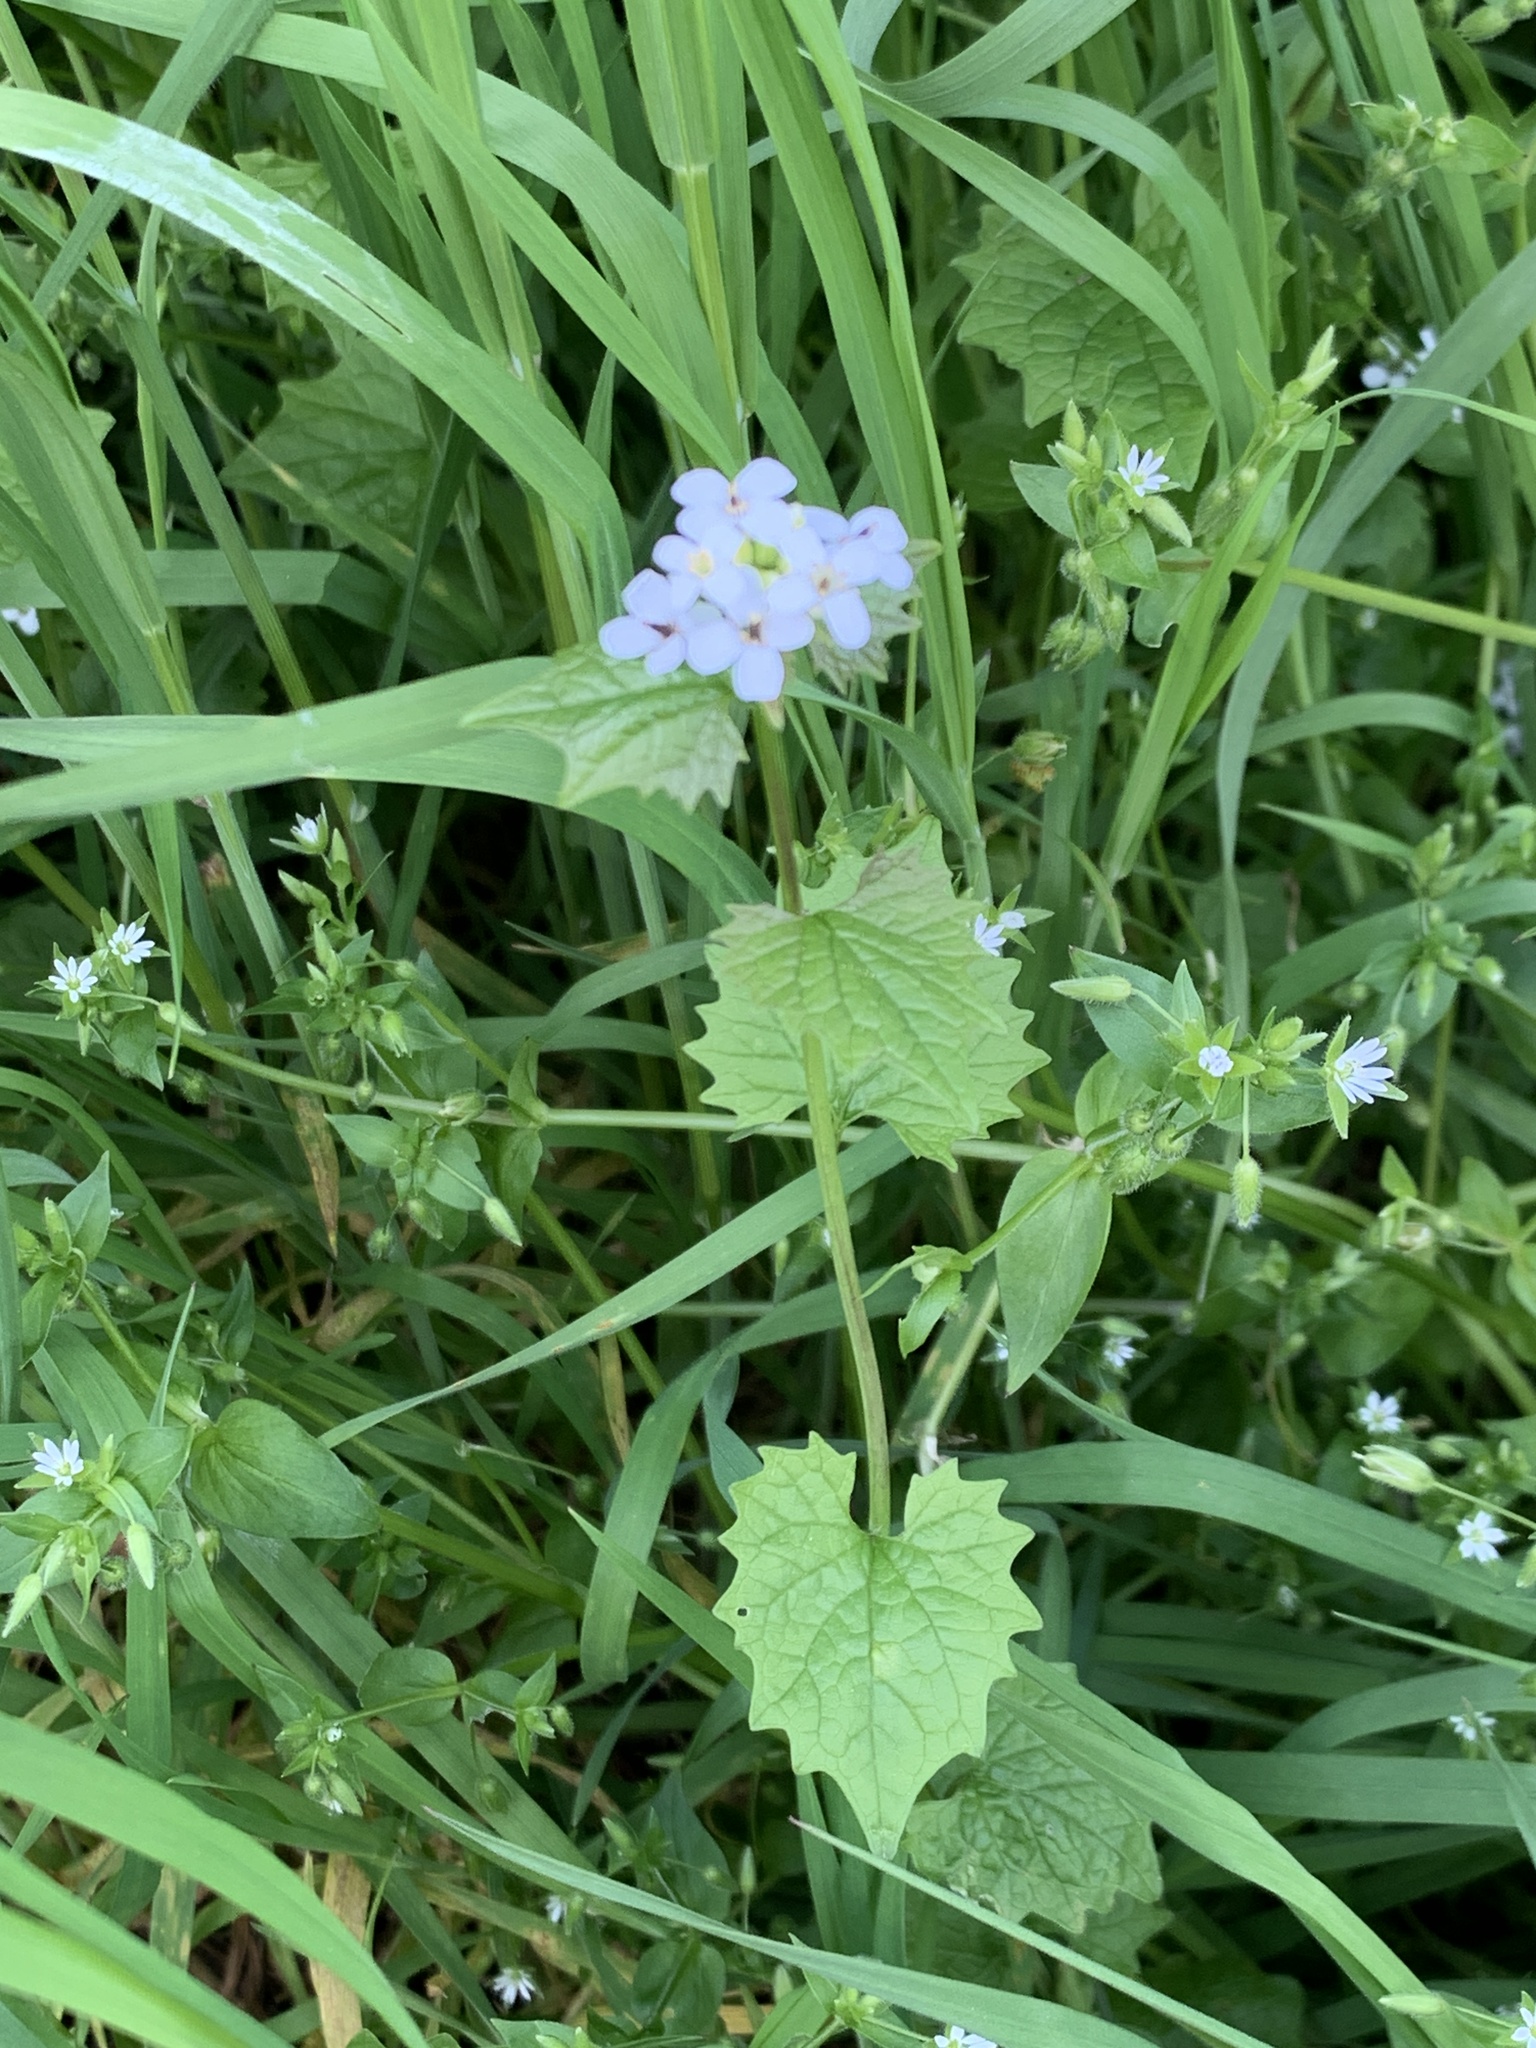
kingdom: Plantae
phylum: Tracheophyta
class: Magnoliopsida
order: Brassicales
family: Brassicaceae
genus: Alliaria
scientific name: Alliaria petiolata
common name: Garlic mustard
